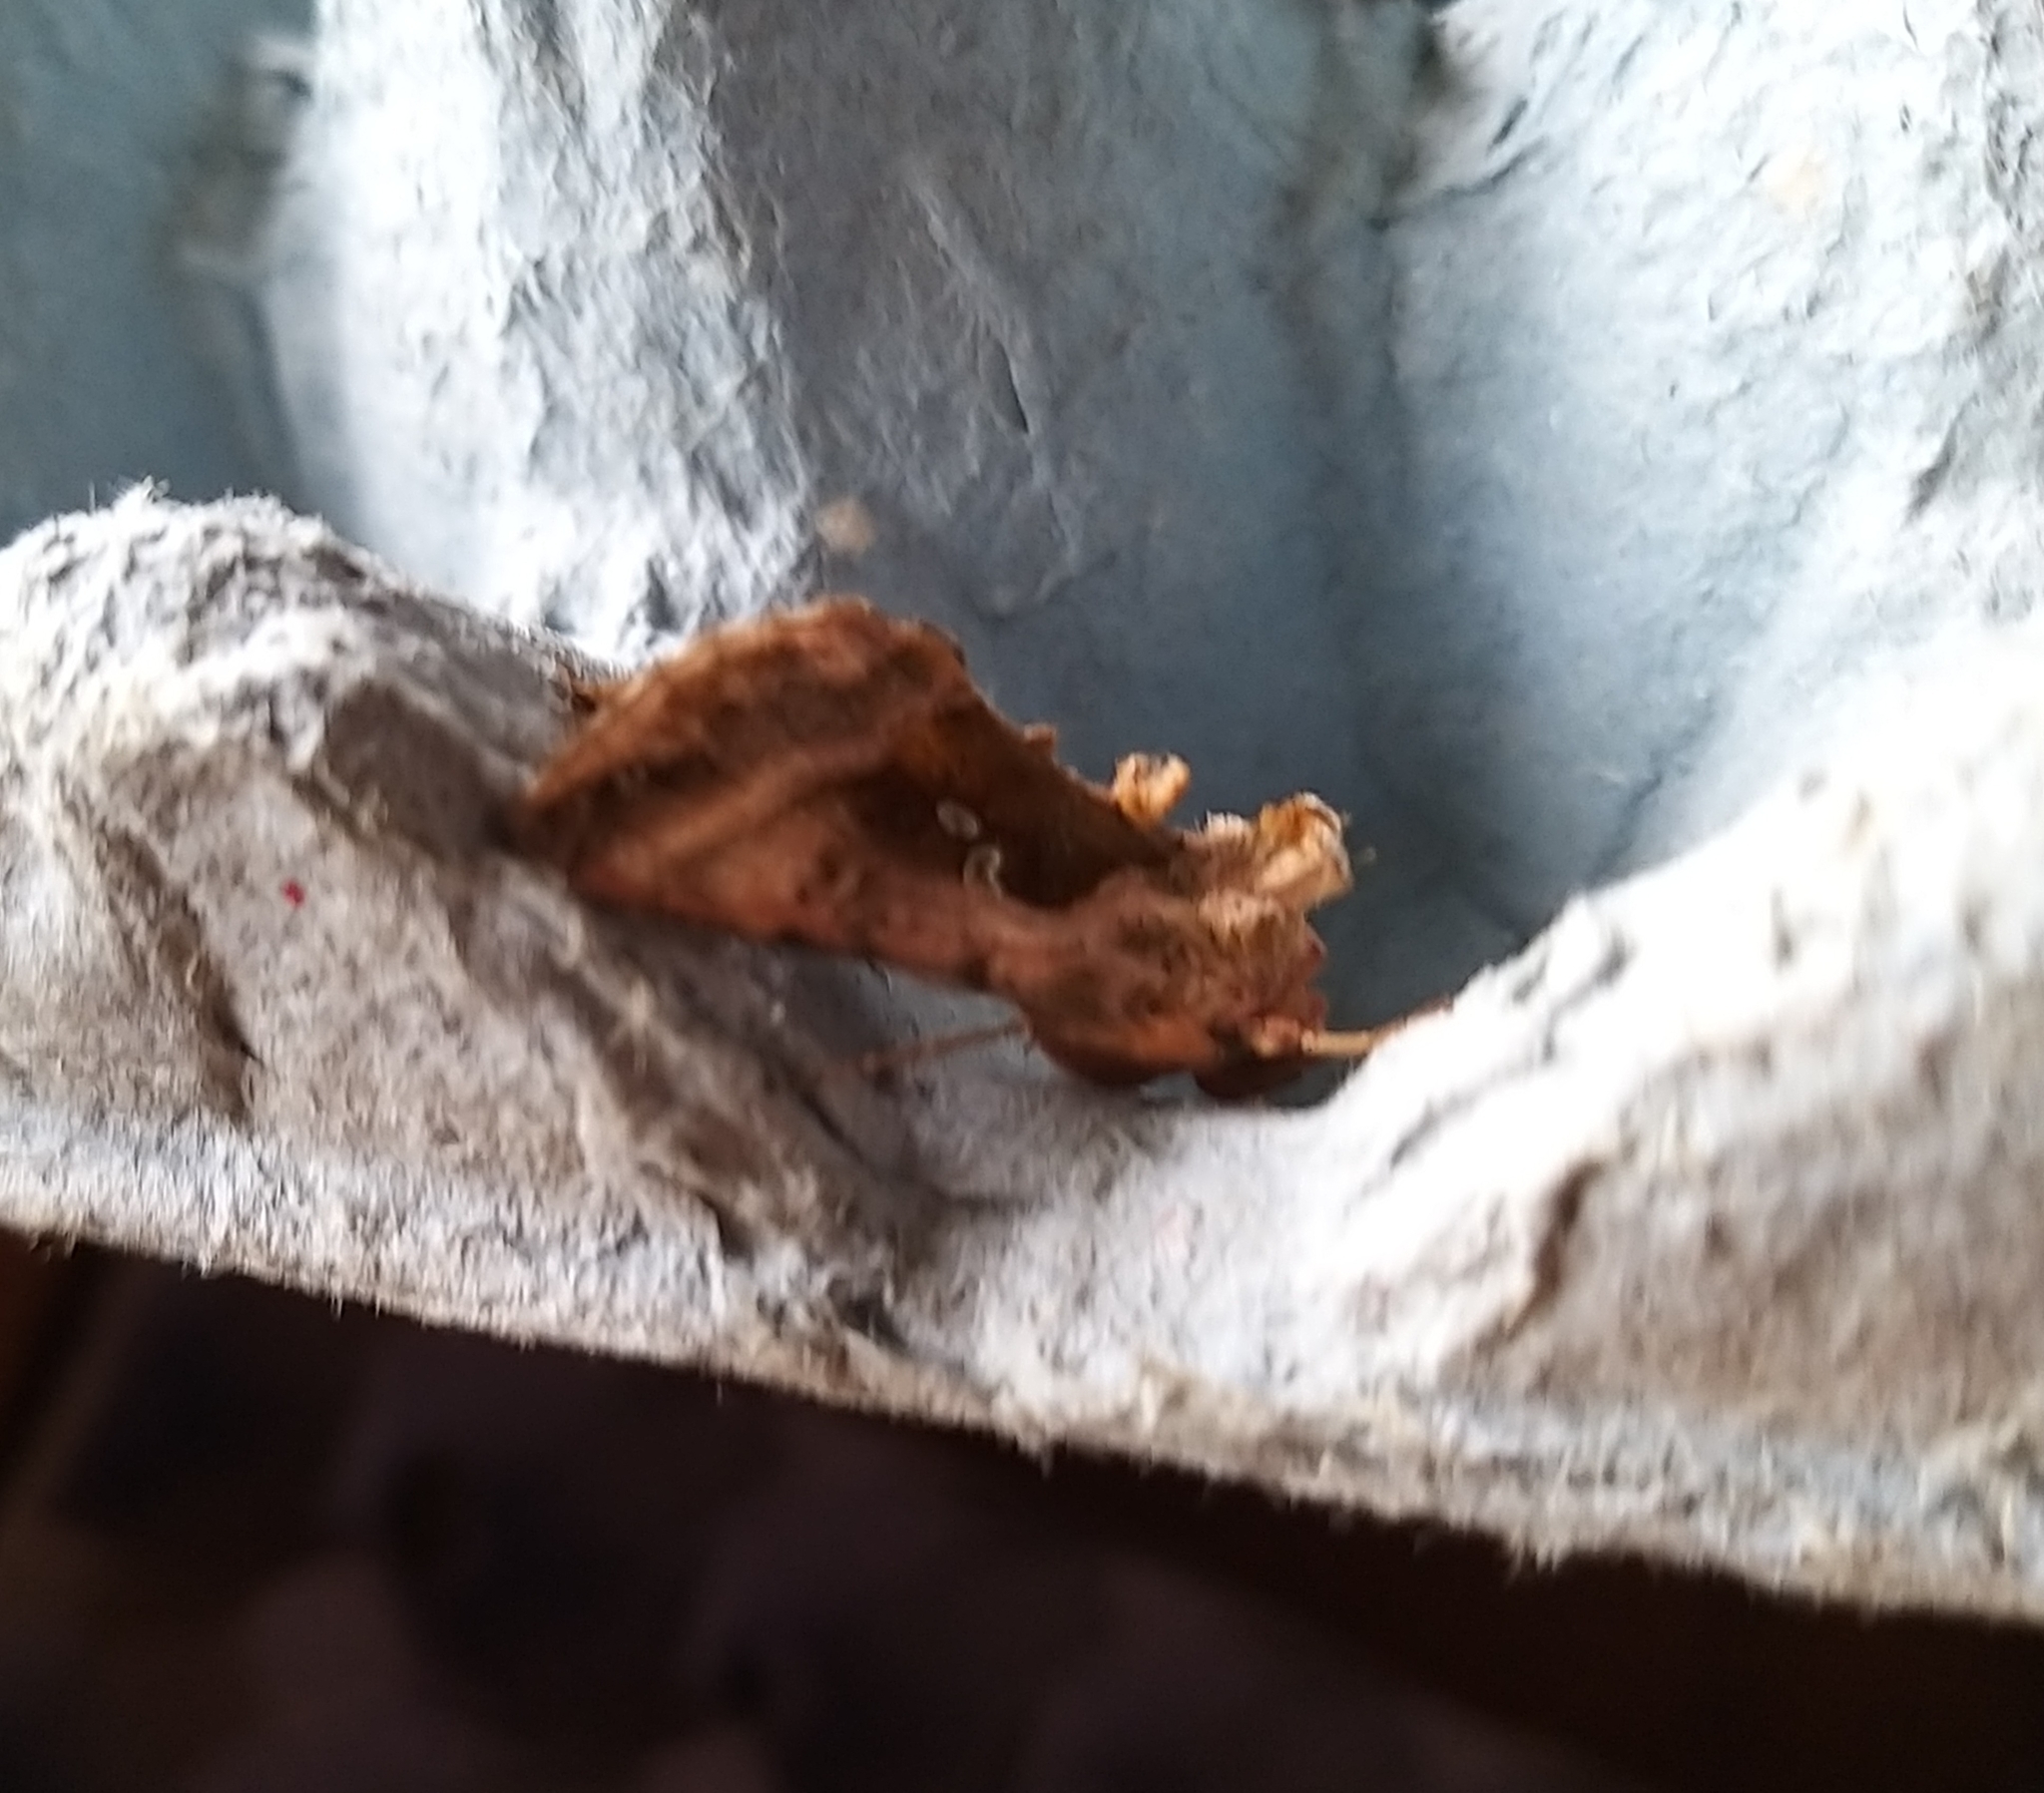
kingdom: Animalia
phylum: Arthropoda
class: Insecta
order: Lepidoptera
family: Noctuidae
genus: Autographa
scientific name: Autographa jota
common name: Plain golden y
